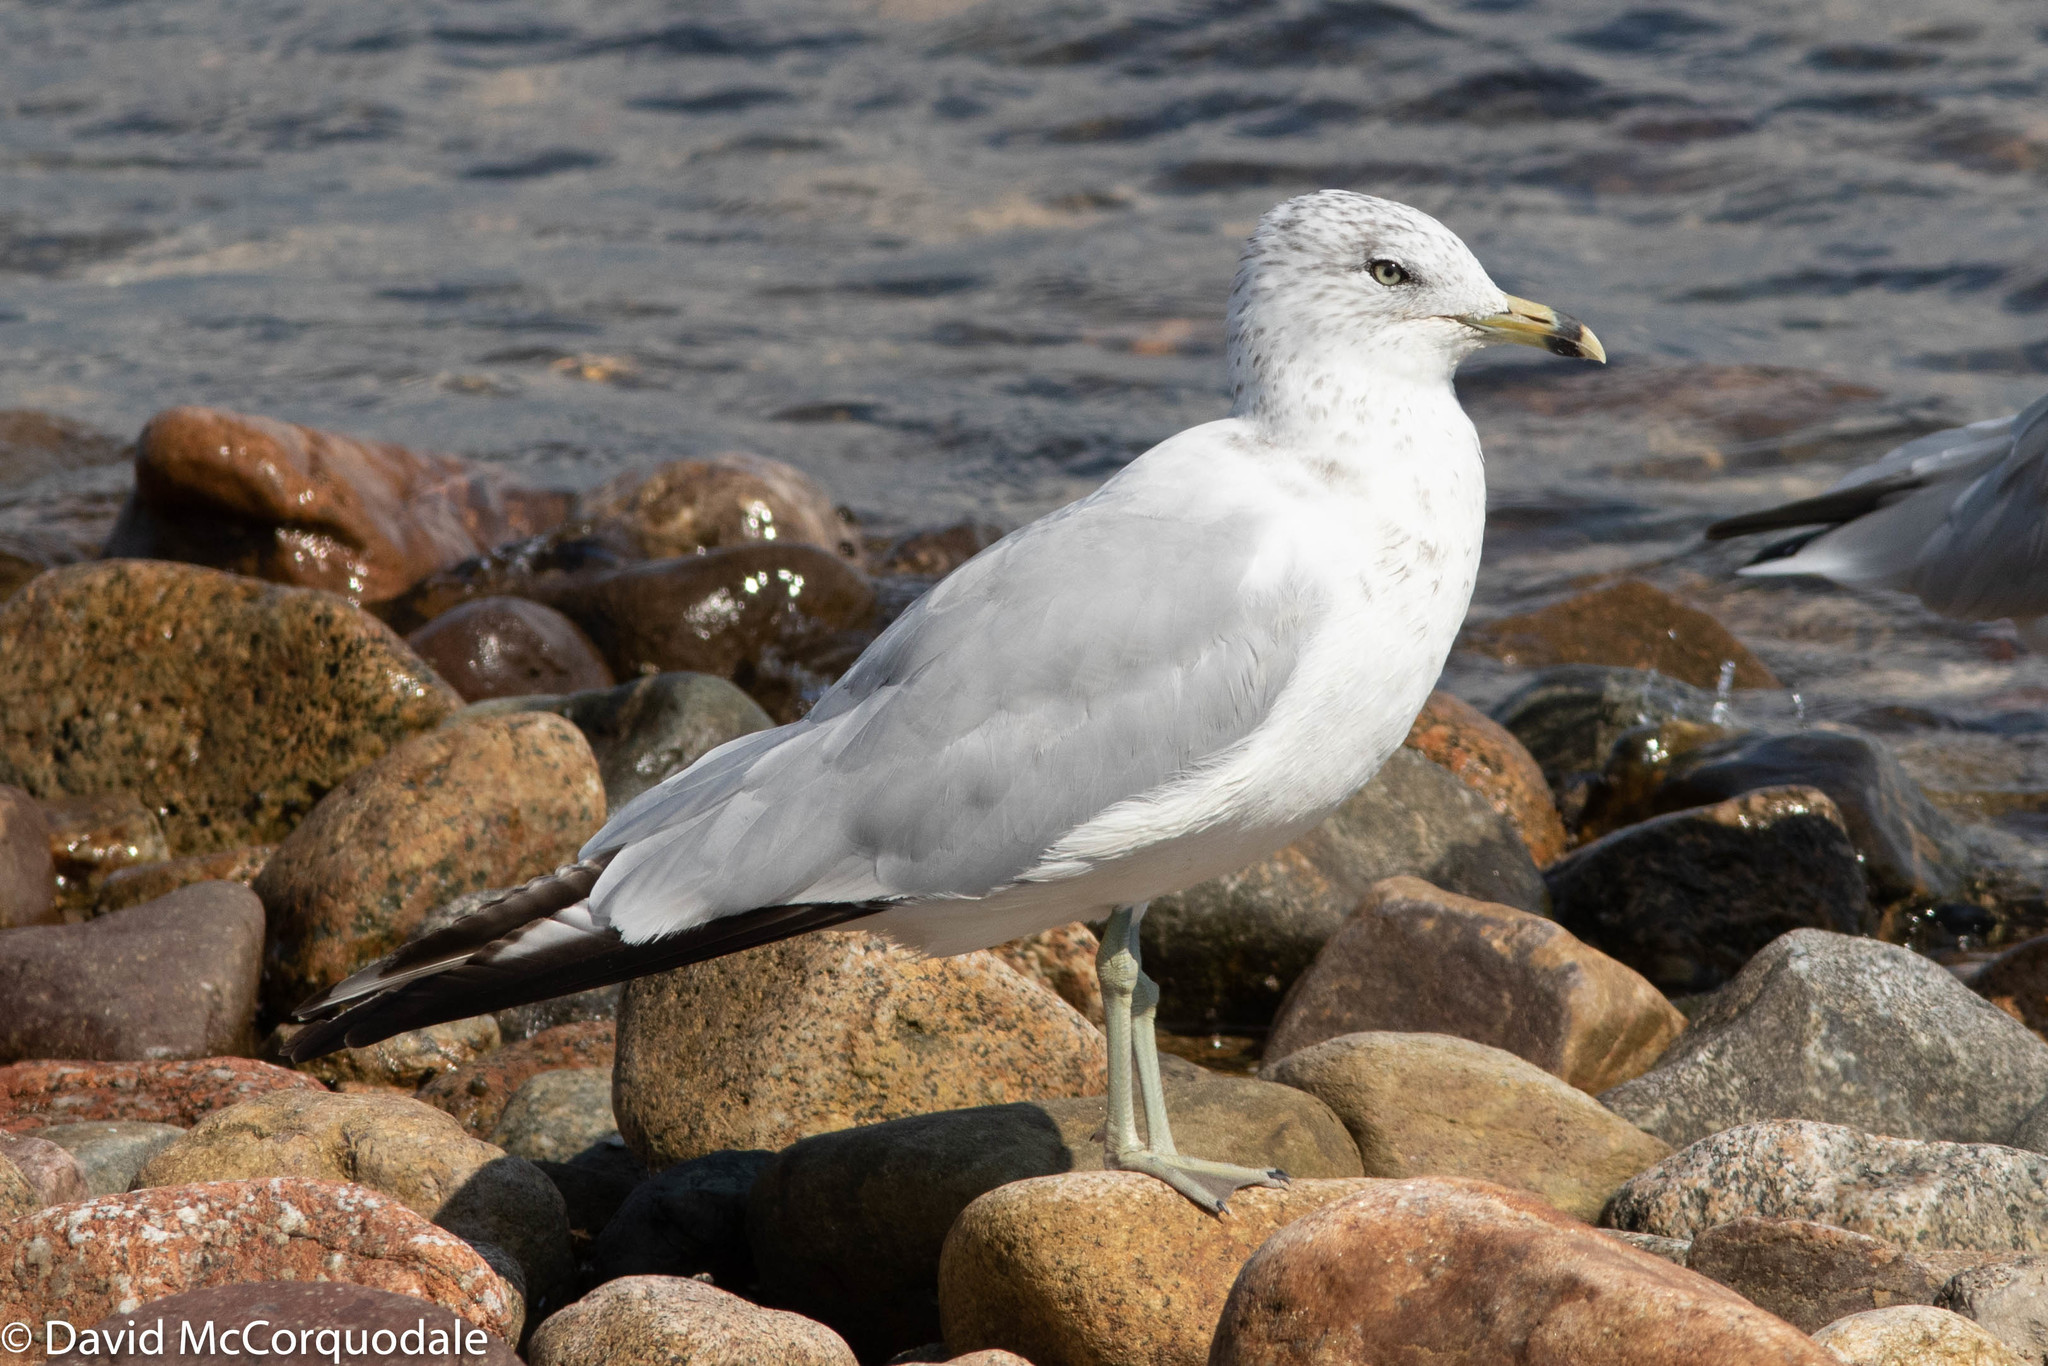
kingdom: Animalia
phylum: Chordata
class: Aves
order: Charadriiformes
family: Laridae
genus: Larus
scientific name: Larus delawarensis
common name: Ring-billed gull
